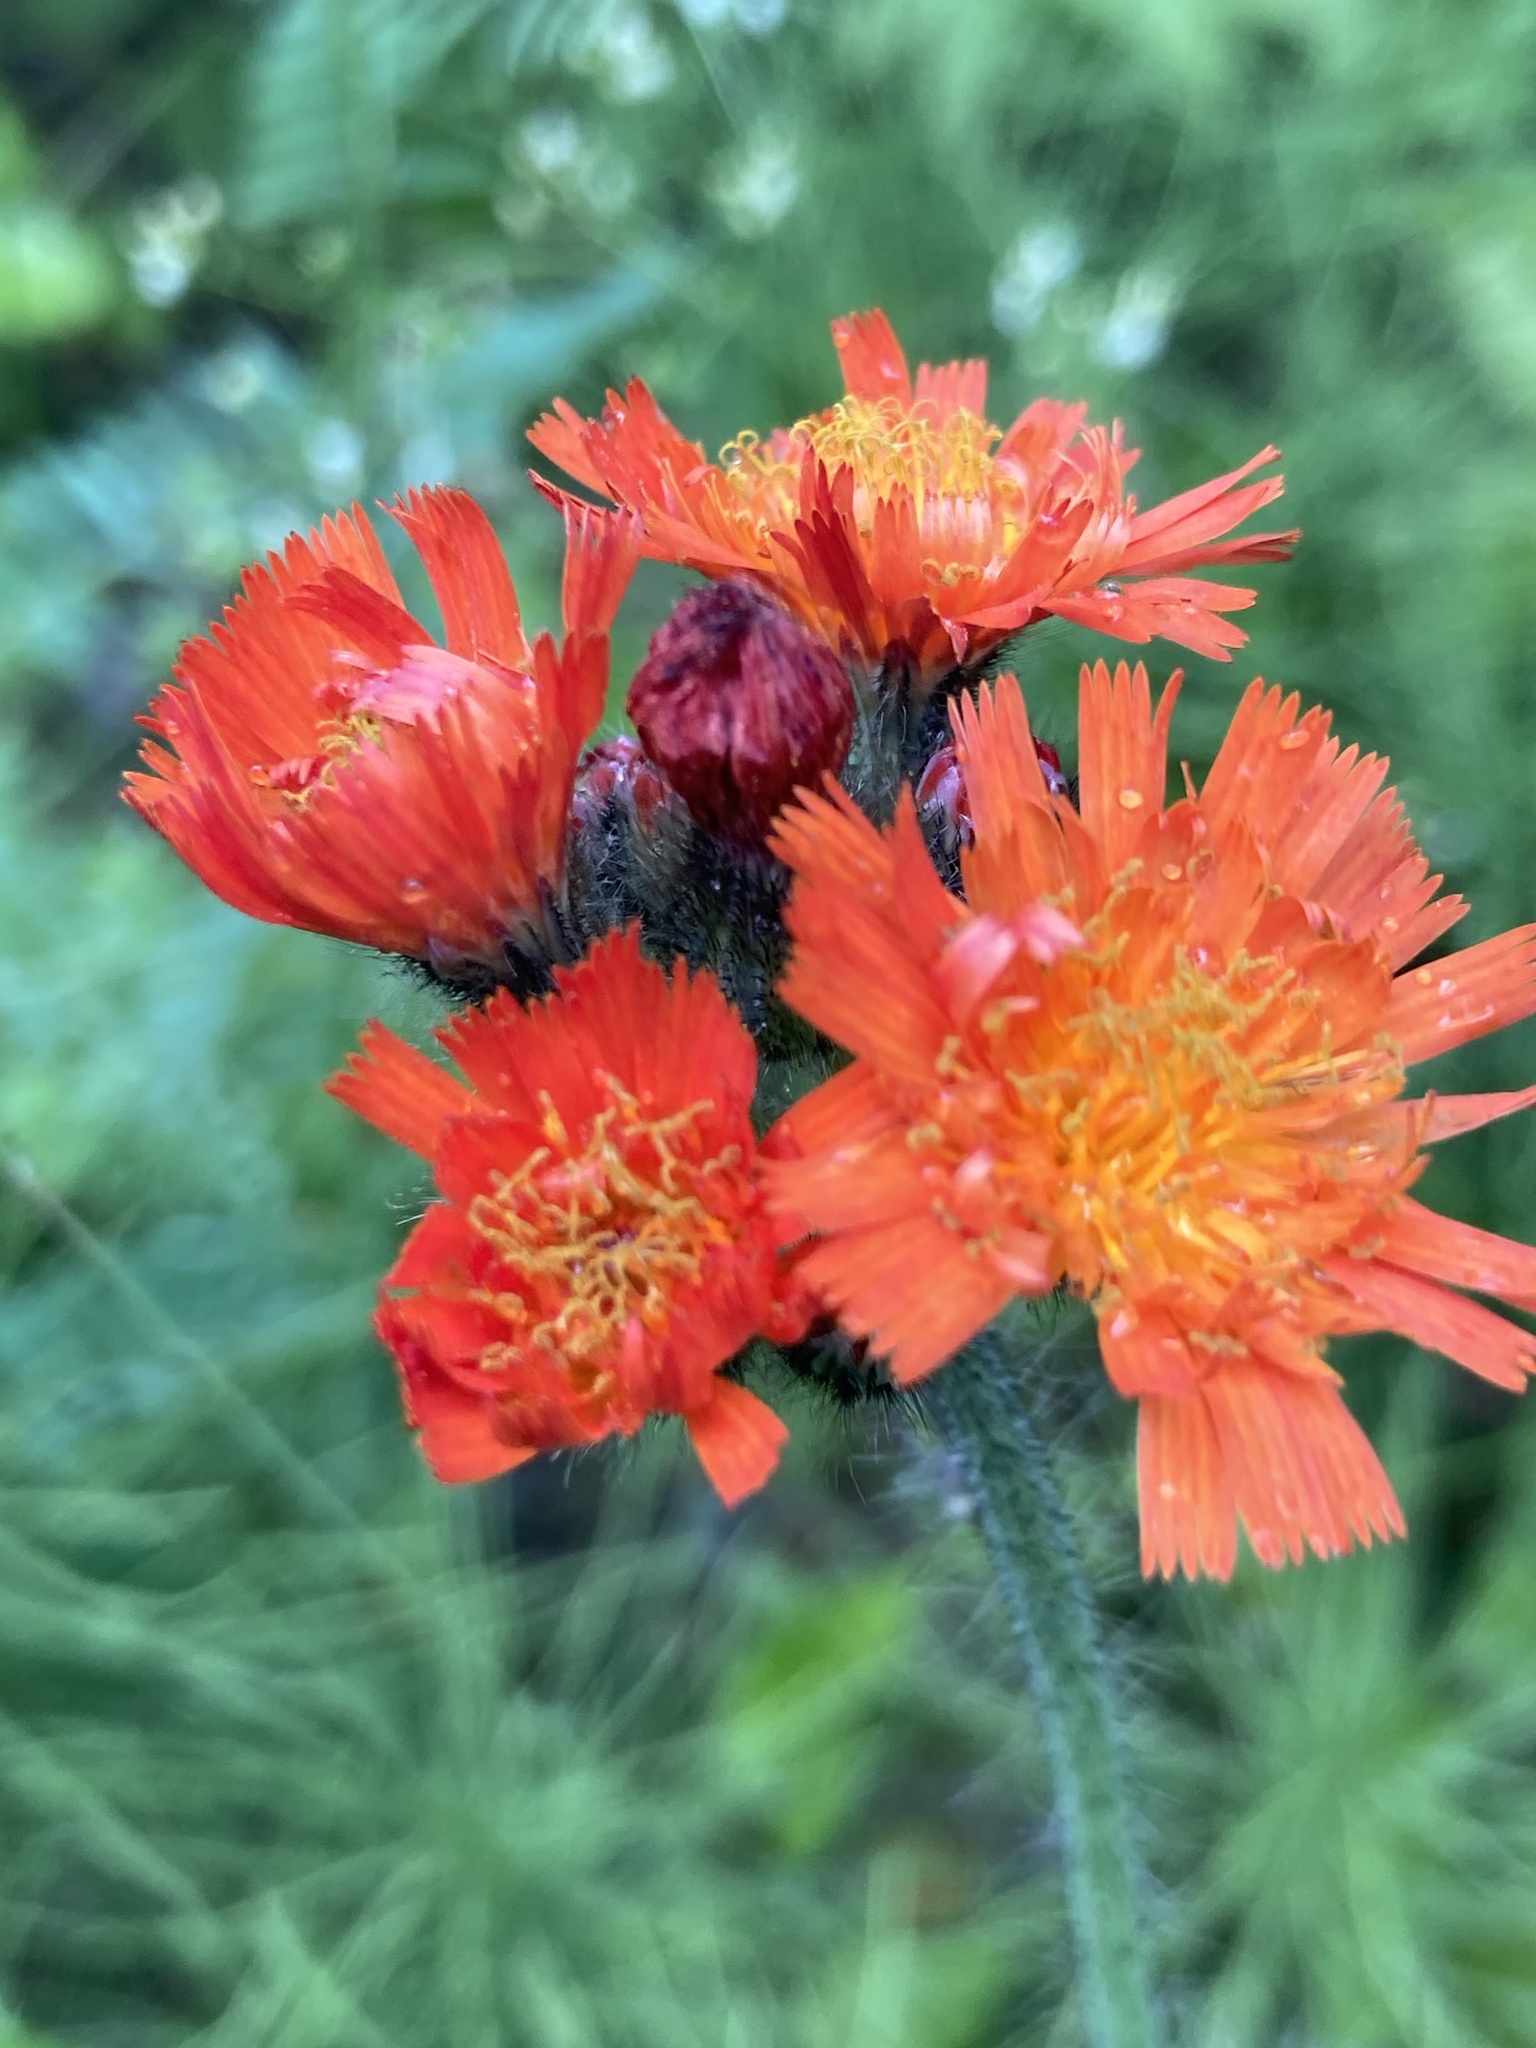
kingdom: Plantae
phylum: Tracheophyta
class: Magnoliopsida
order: Asterales
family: Asteraceae
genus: Pilosella
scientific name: Pilosella aurantiaca
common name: Fox-and-cubs
